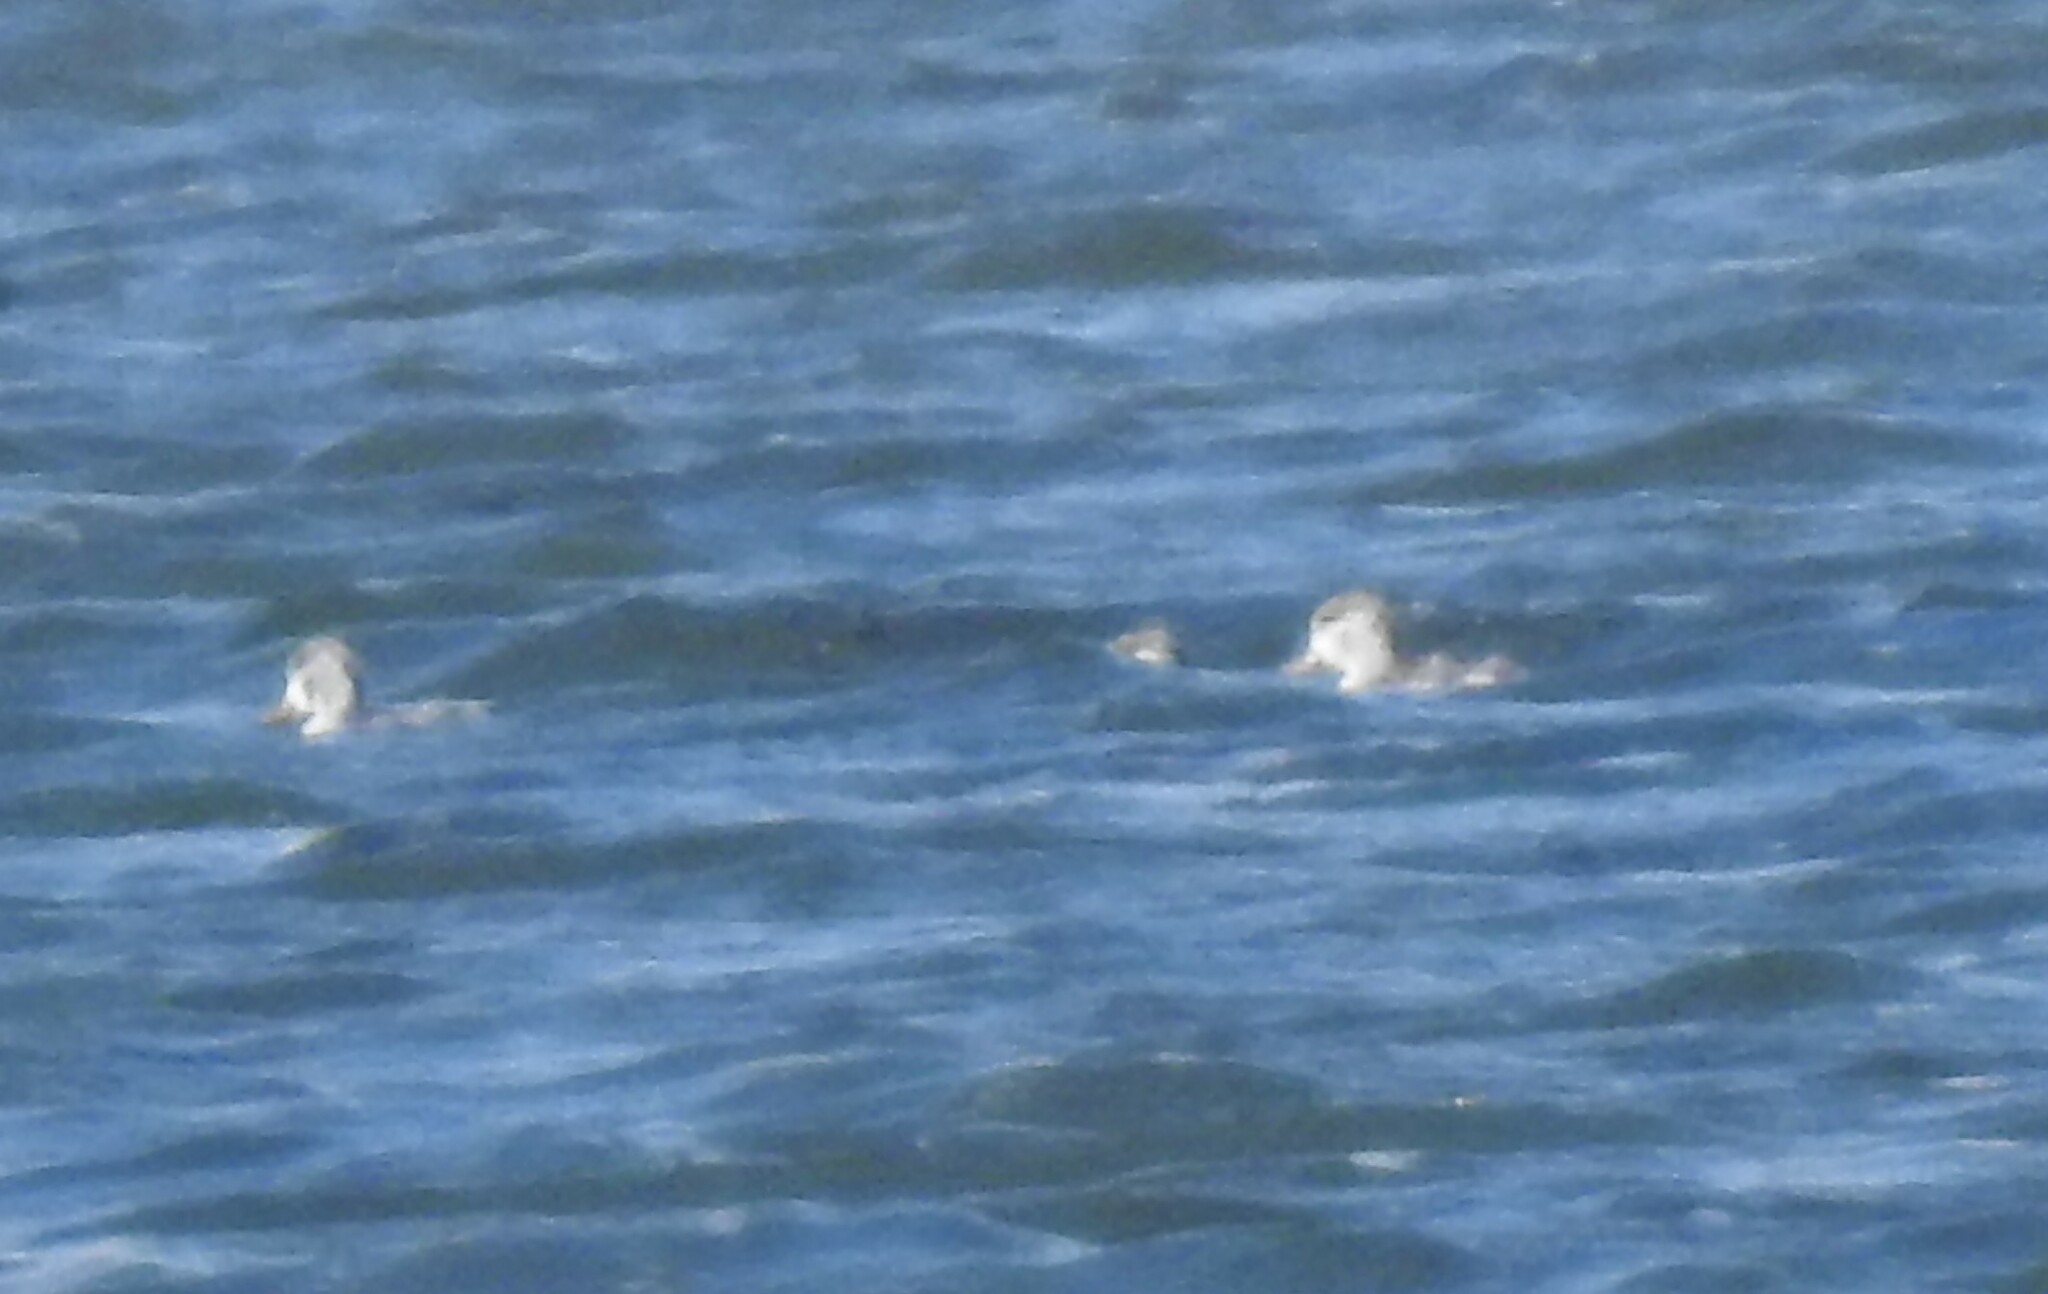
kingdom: Animalia
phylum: Chordata
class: Aves
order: Anseriformes
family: Anatidae
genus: Tadorna
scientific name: Tadorna tadorna
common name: Common shelduck
